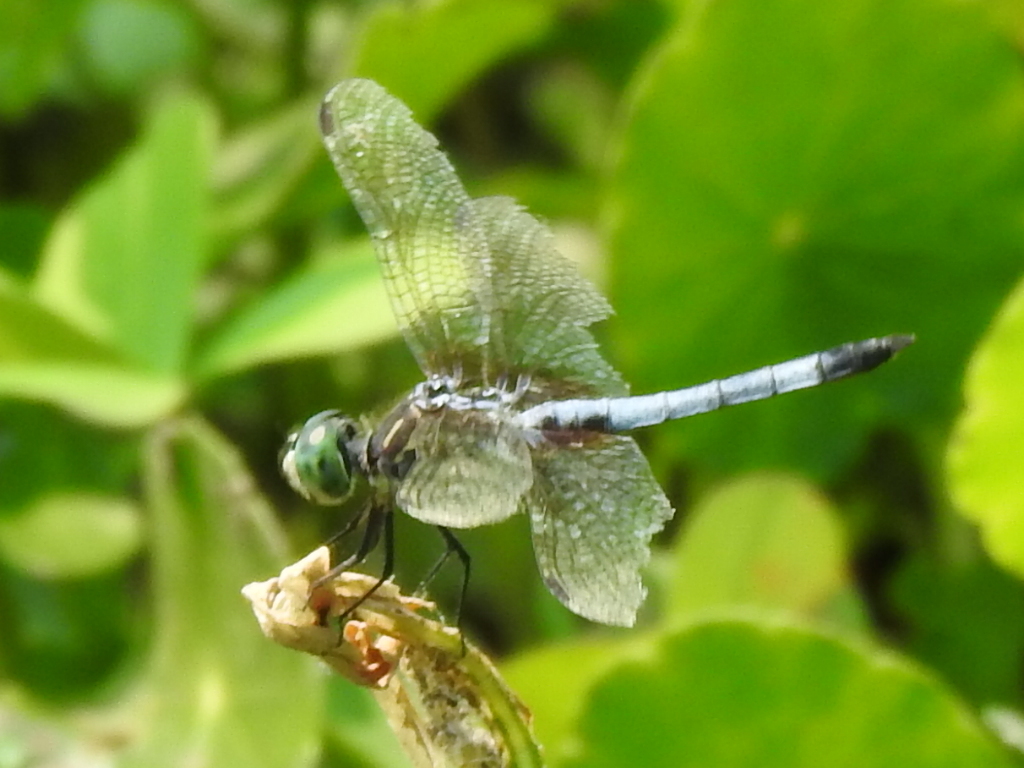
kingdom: Animalia
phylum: Arthropoda
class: Insecta
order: Odonata
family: Libellulidae
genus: Pachydiplax
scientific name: Pachydiplax longipennis
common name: Blue dasher
